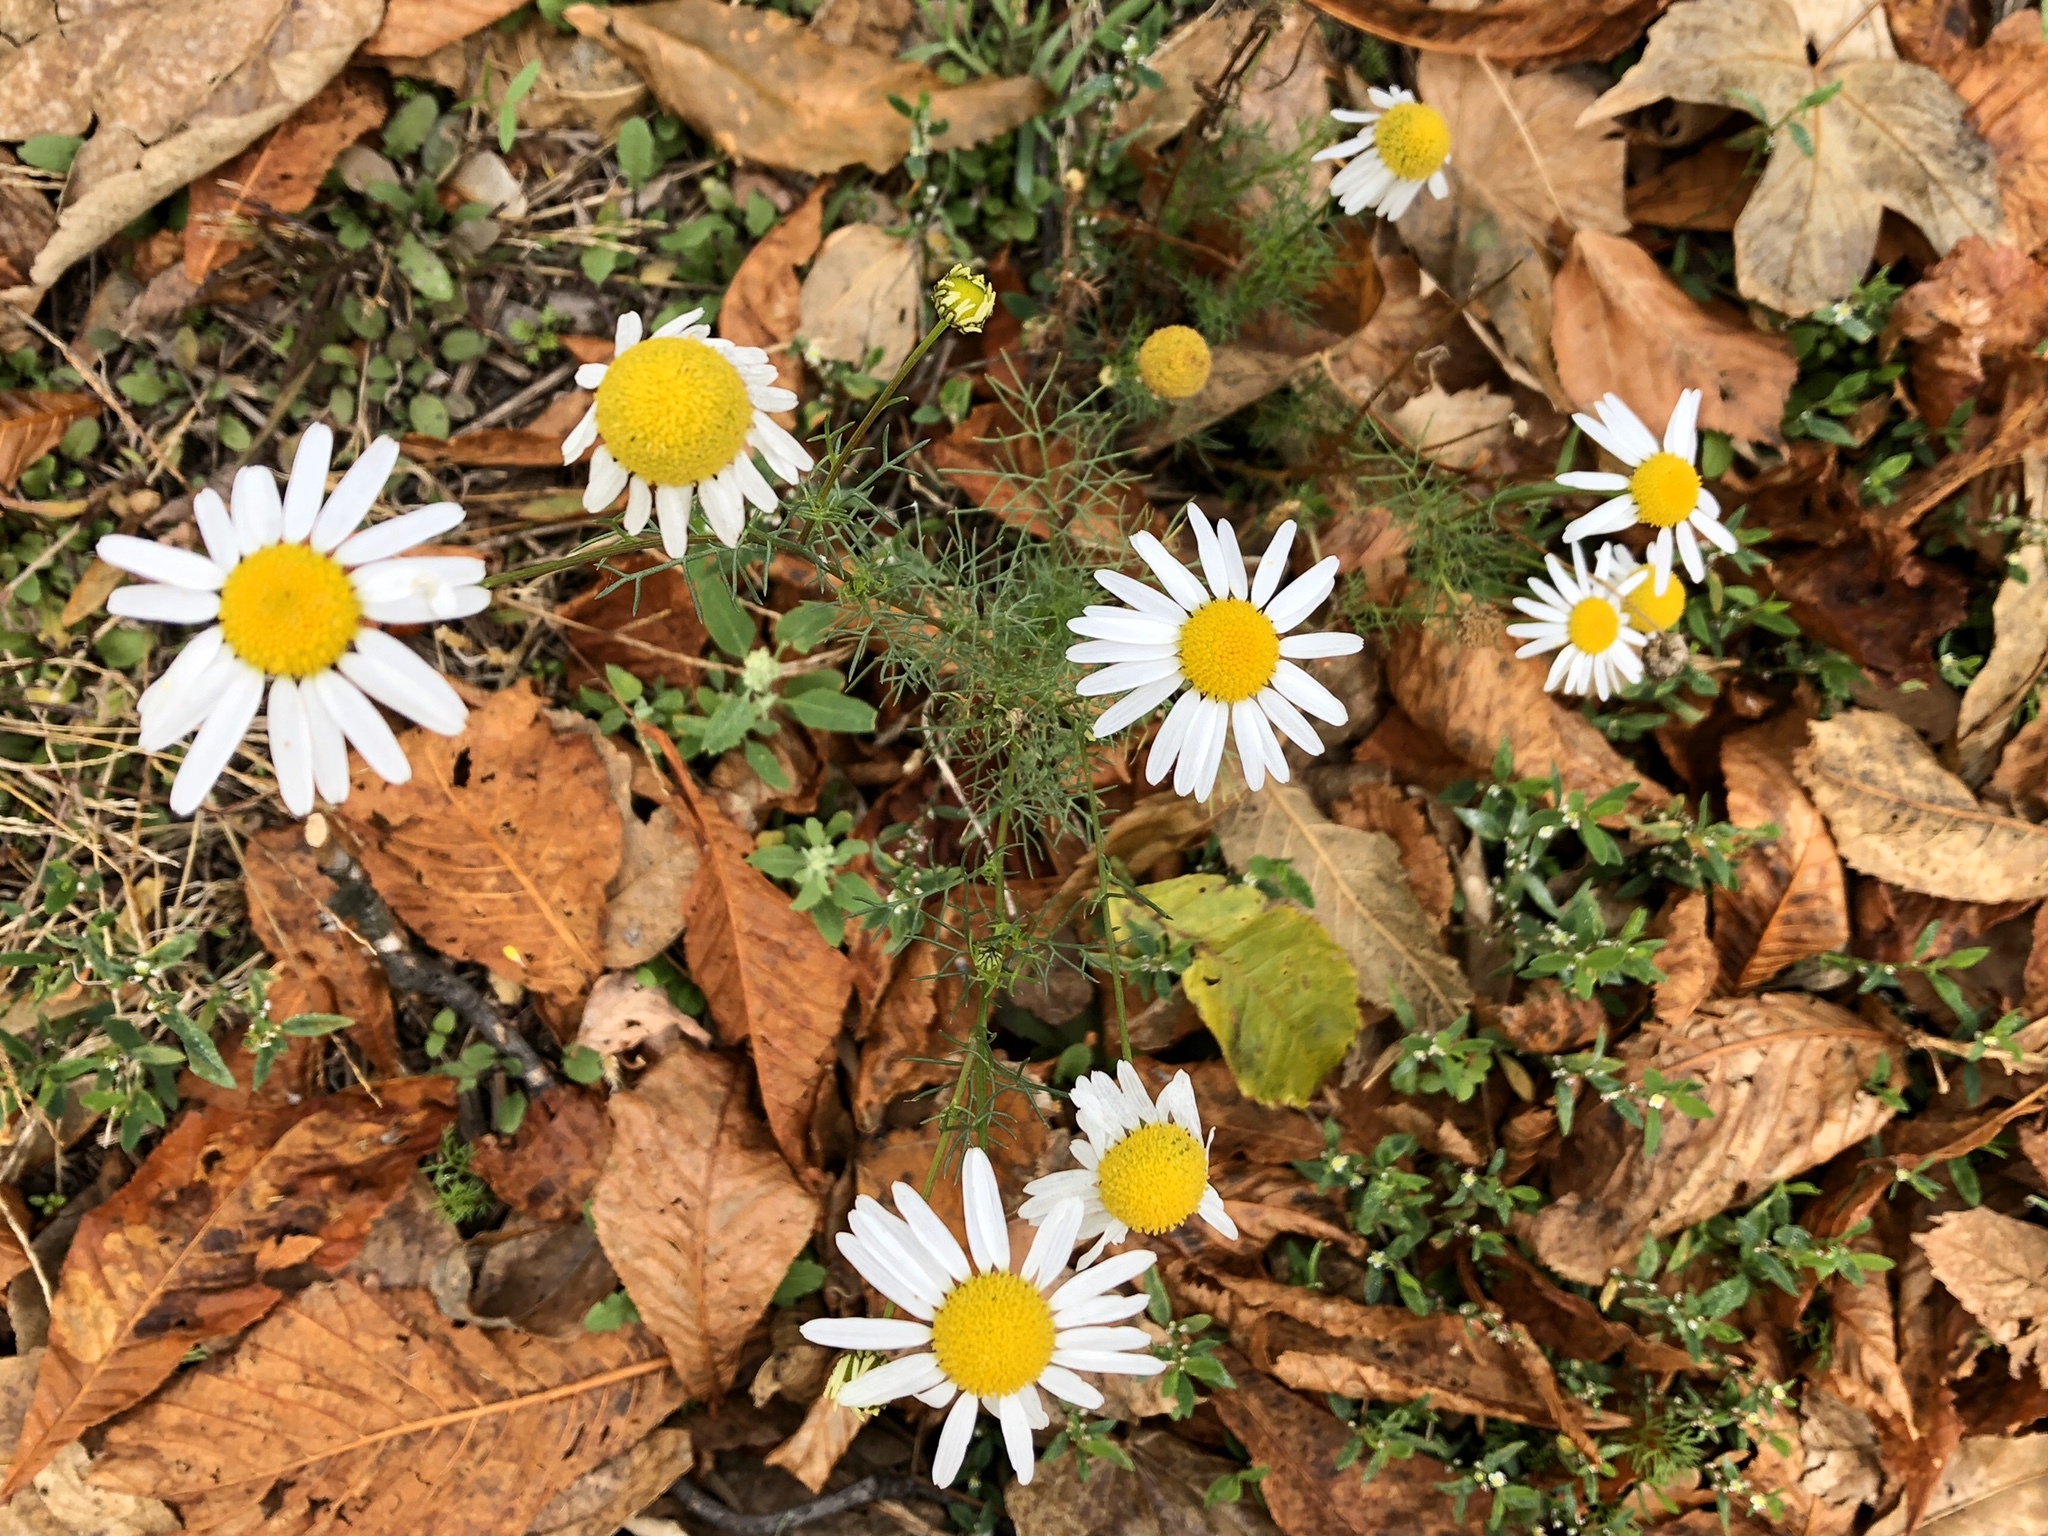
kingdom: Plantae
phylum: Tracheophyta
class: Magnoliopsida
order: Asterales
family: Asteraceae
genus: Tripleurospermum
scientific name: Tripleurospermum inodorum
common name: Scentless mayweed
